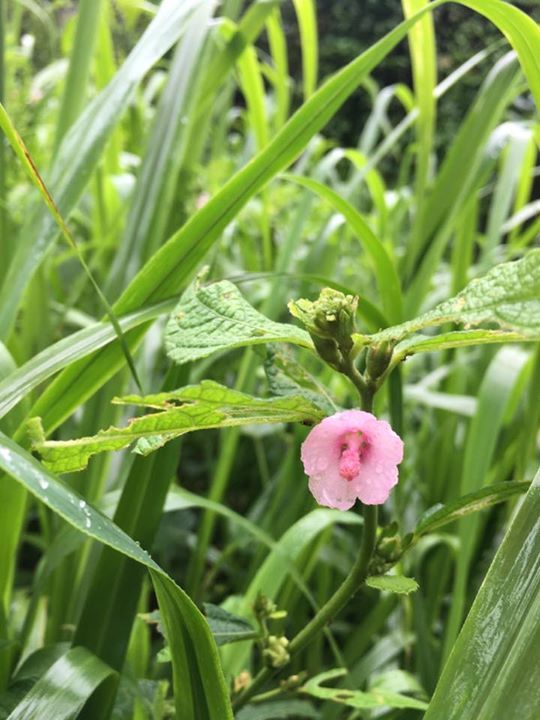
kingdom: Plantae
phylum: Tracheophyta
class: Magnoliopsida
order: Malvales
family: Malvaceae
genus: Urena
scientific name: Urena lobata
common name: Caesarweed
